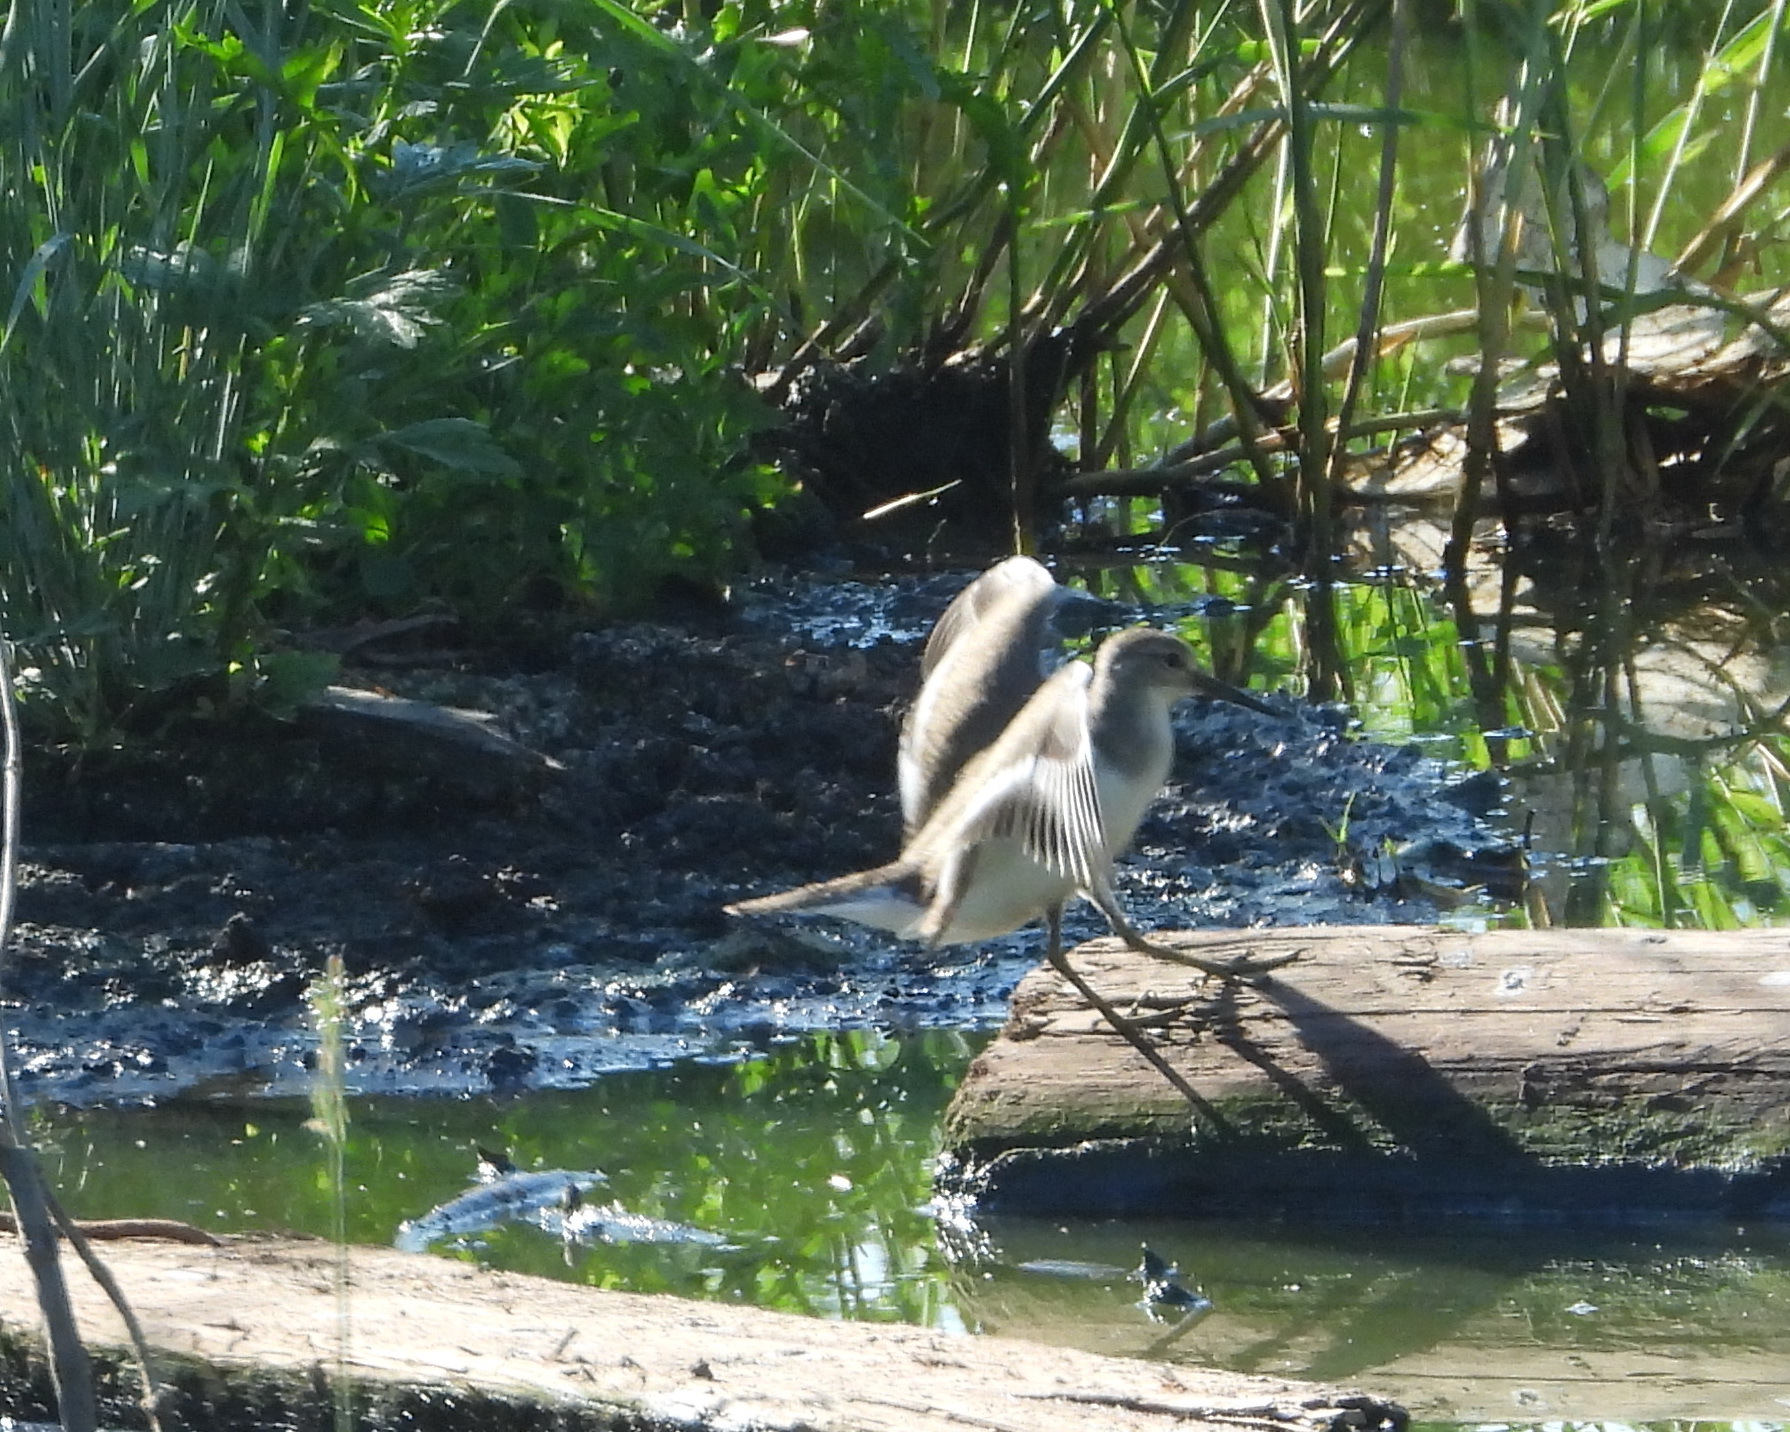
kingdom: Animalia
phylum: Chordata
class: Aves
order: Charadriiformes
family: Scolopacidae
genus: Actitis
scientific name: Actitis hypoleucos
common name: Common sandpiper
